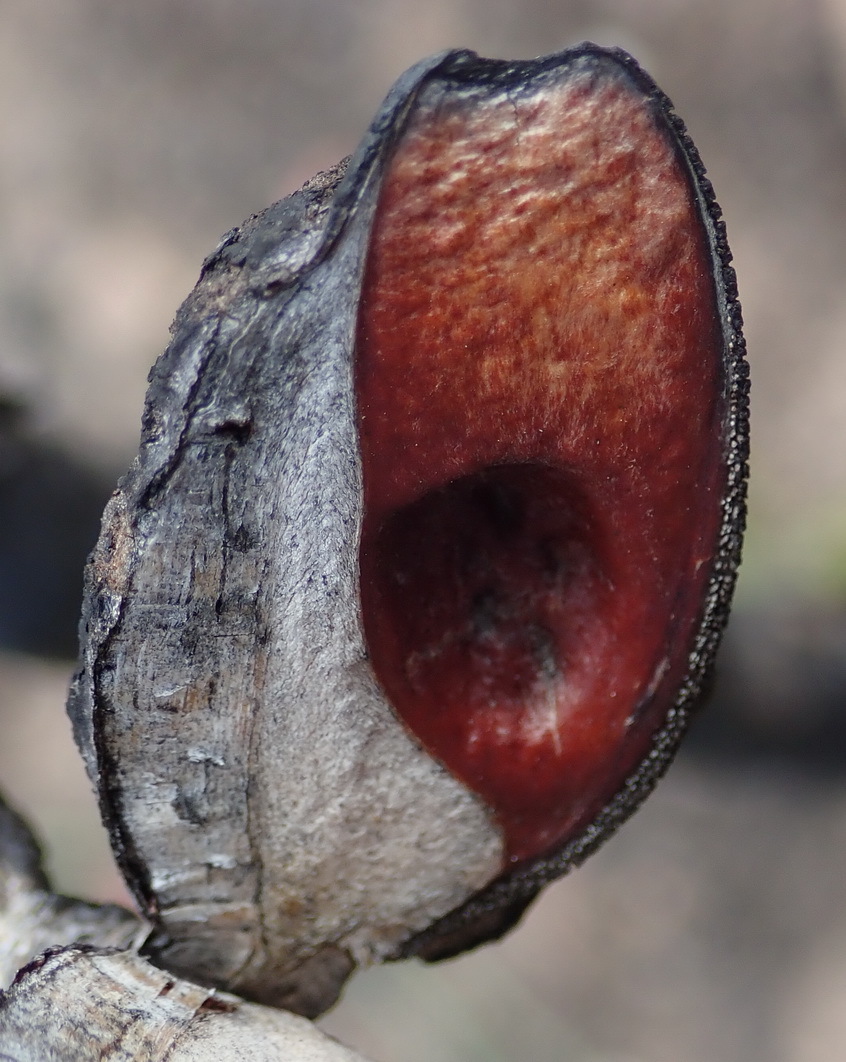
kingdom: Plantae
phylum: Tracheophyta
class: Magnoliopsida
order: Proteales
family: Proteaceae
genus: Hakea
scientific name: Hakea sericea
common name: Needle bush
